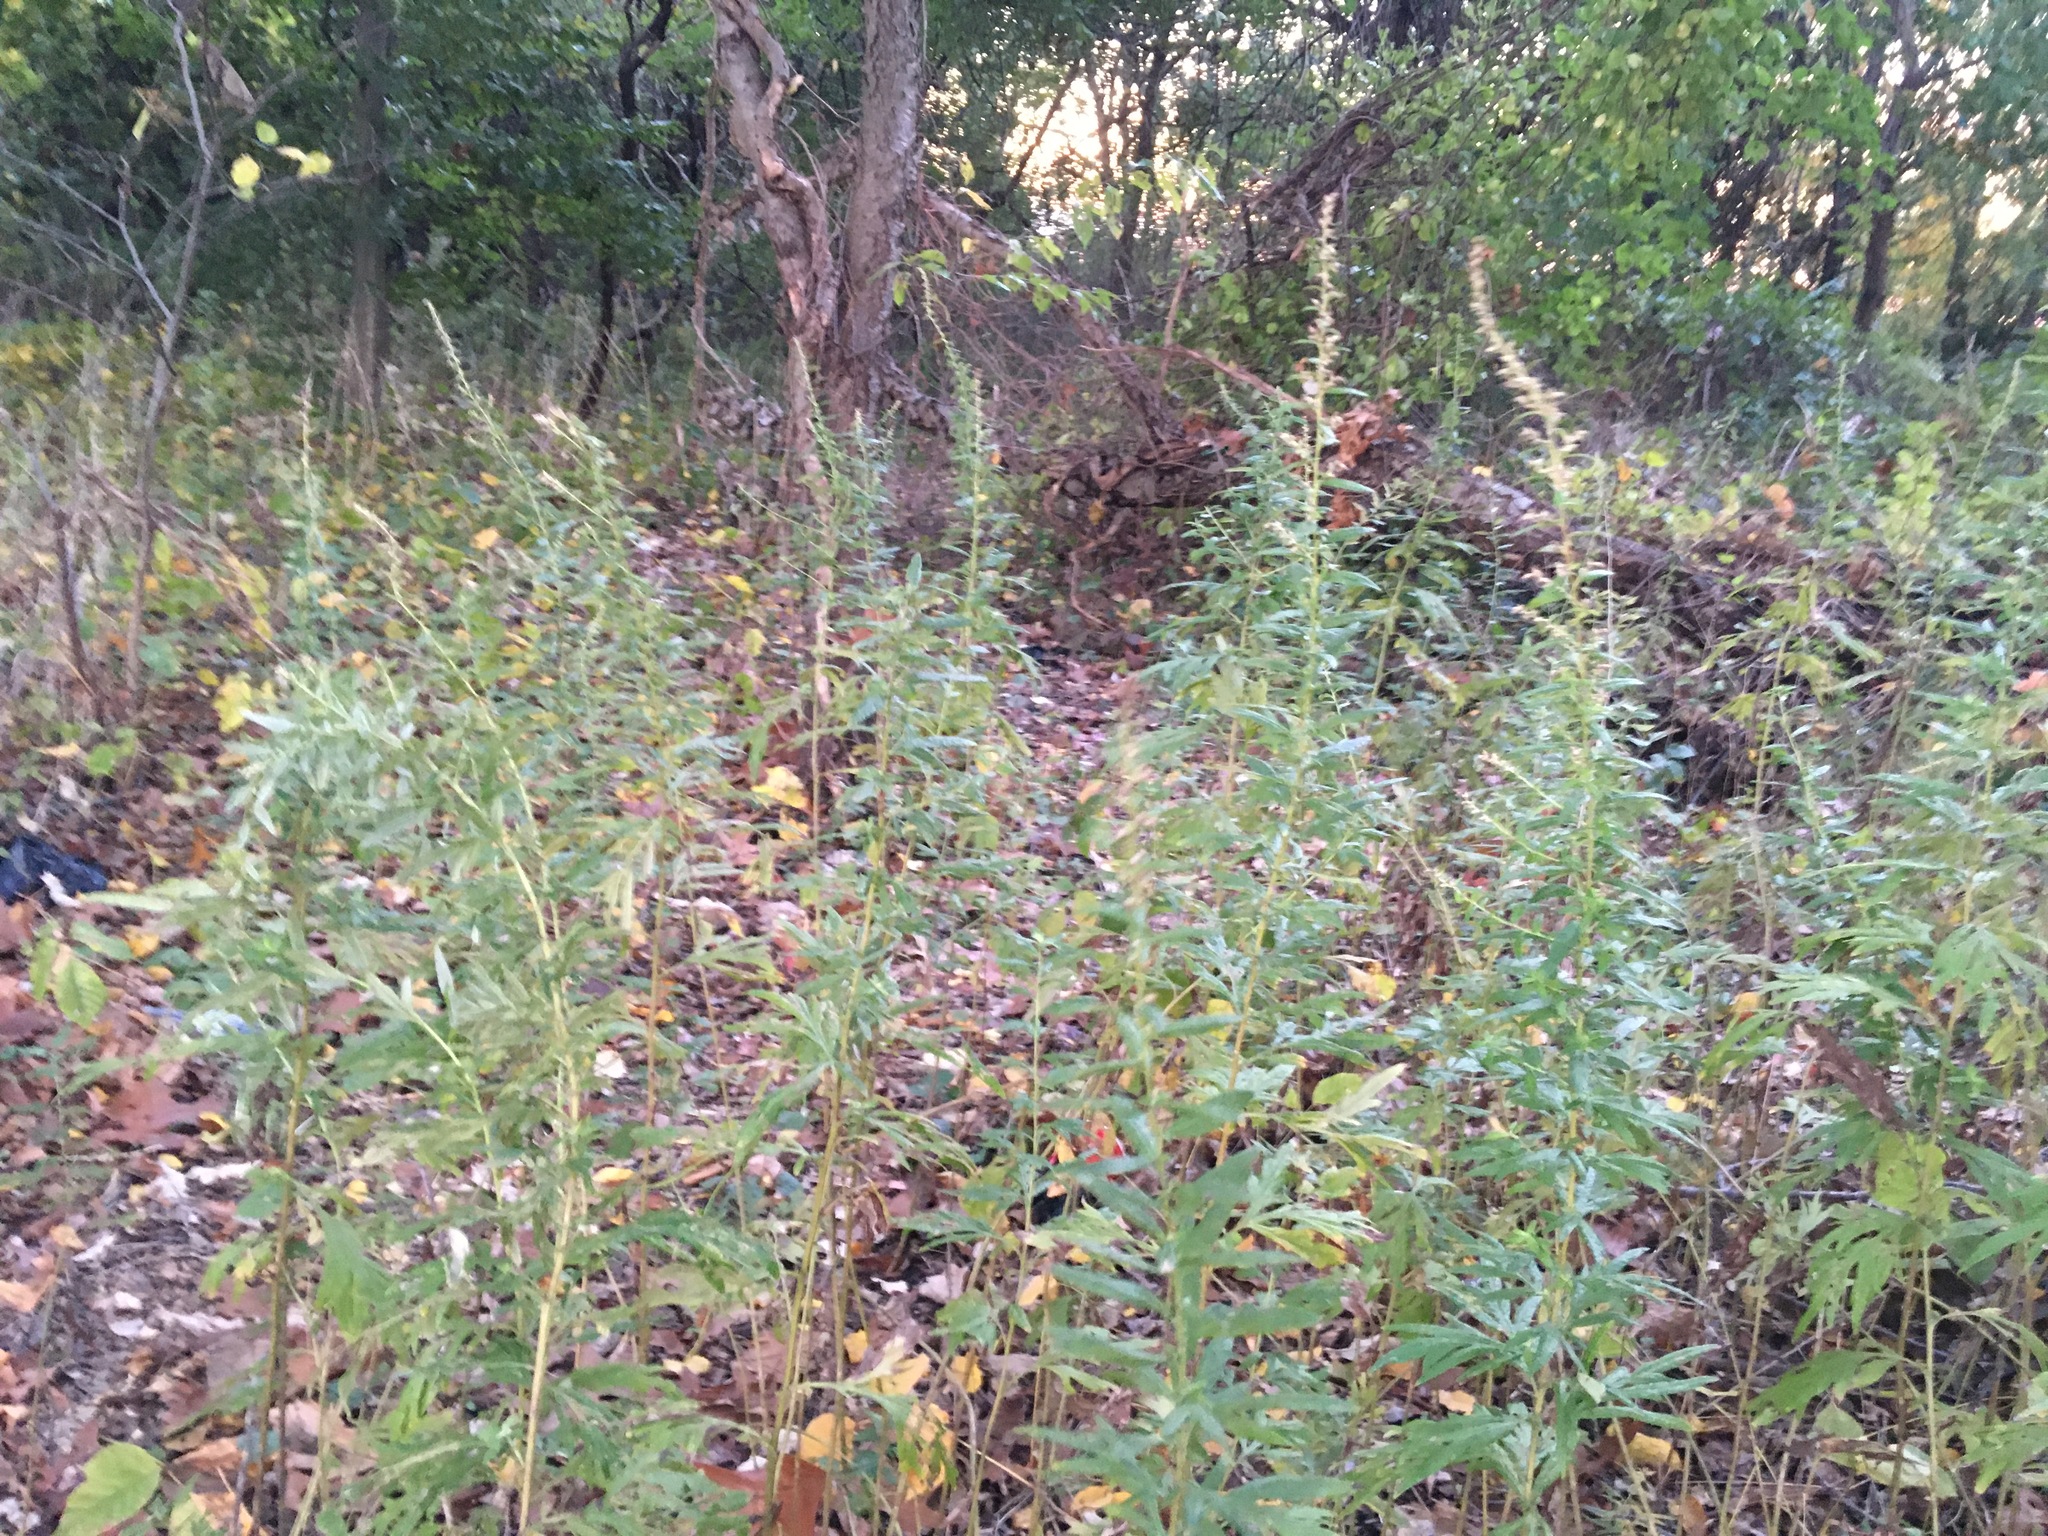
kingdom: Plantae
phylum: Tracheophyta
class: Magnoliopsida
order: Asterales
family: Asteraceae
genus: Artemisia
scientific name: Artemisia vulgaris
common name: Mugwort
